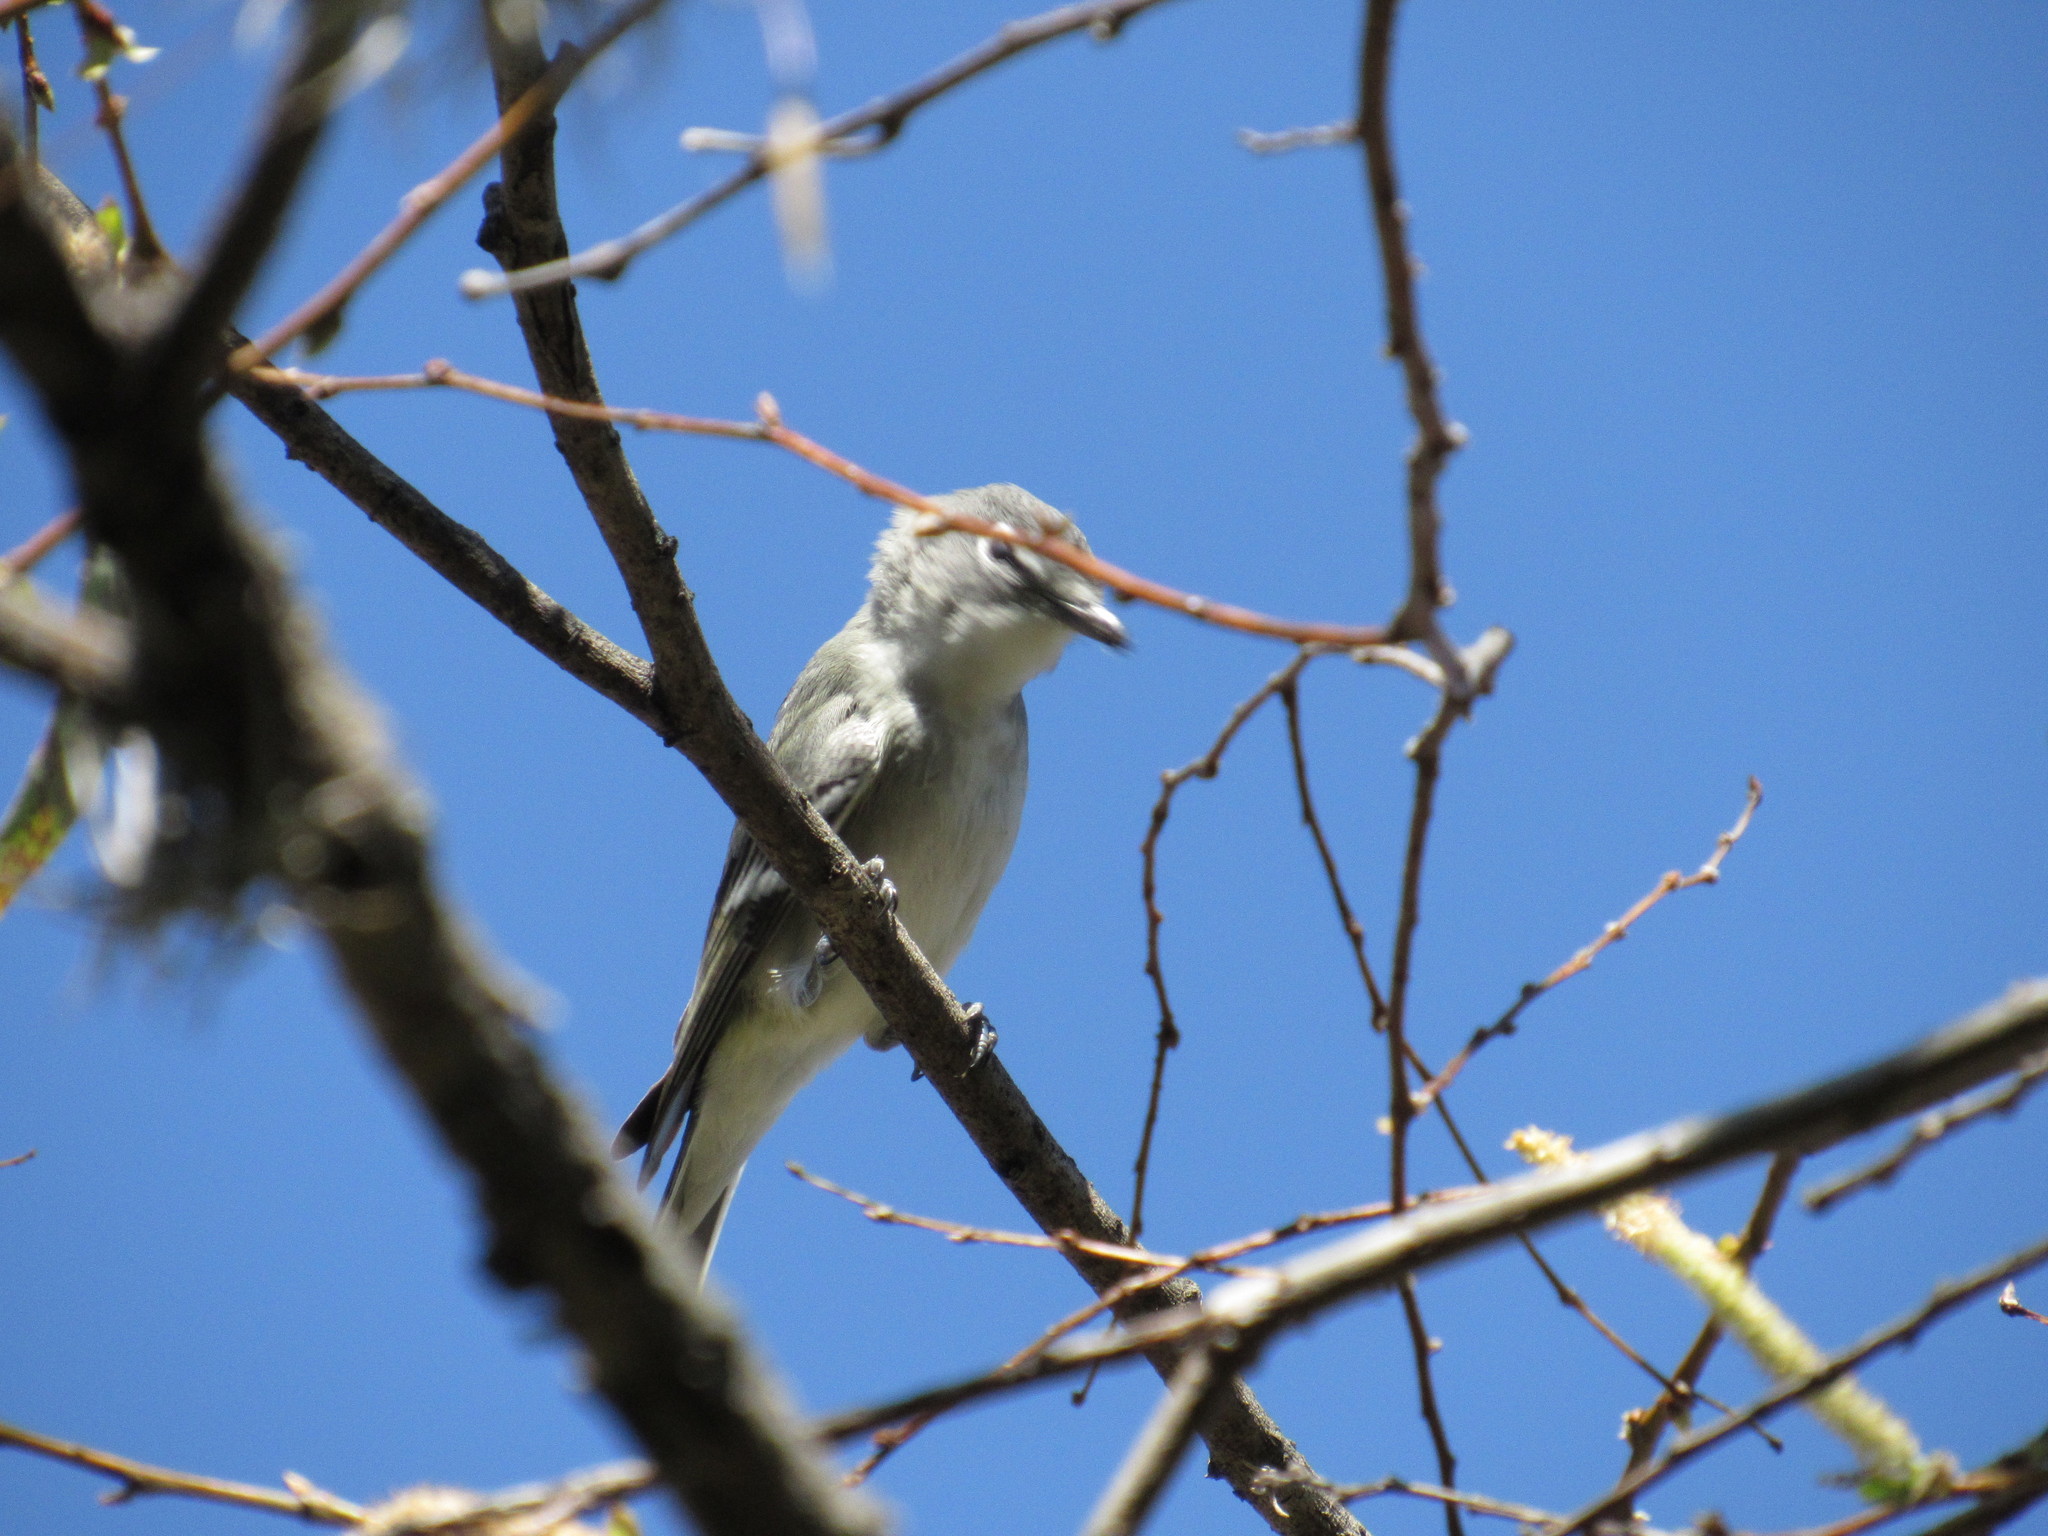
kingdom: Animalia
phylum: Chordata
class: Aves
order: Passeriformes
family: Vireonidae
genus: Vireo
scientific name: Vireo plumbeus
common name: Plumbeous vireo
